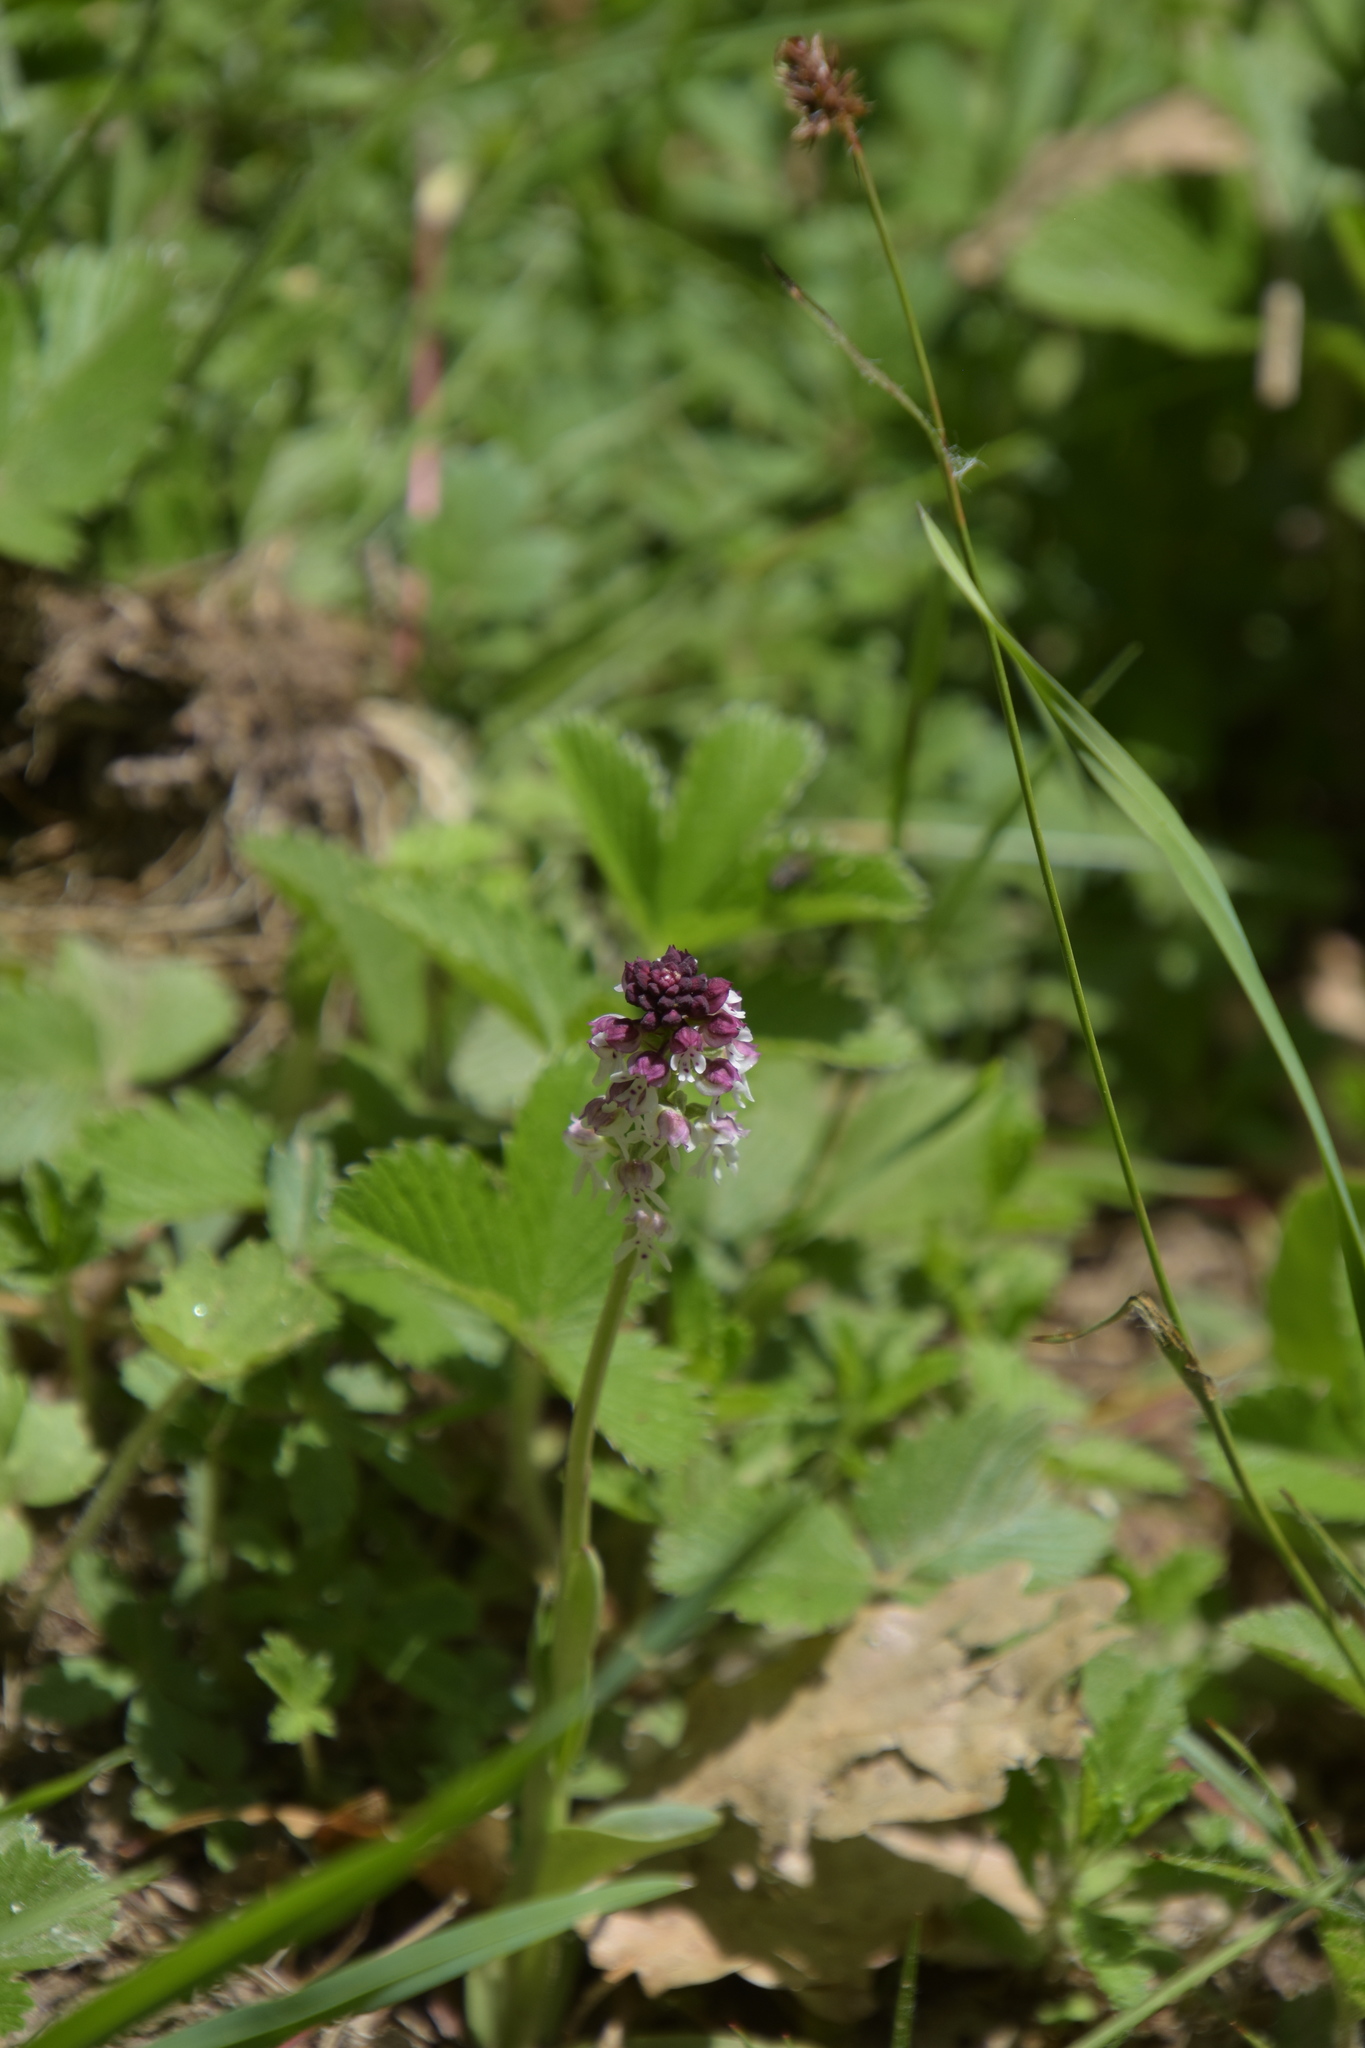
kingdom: Plantae
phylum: Tracheophyta
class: Liliopsida
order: Asparagales
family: Orchidaceae
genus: Neotinea
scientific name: Neotinea ustulata
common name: Burnt orchid
